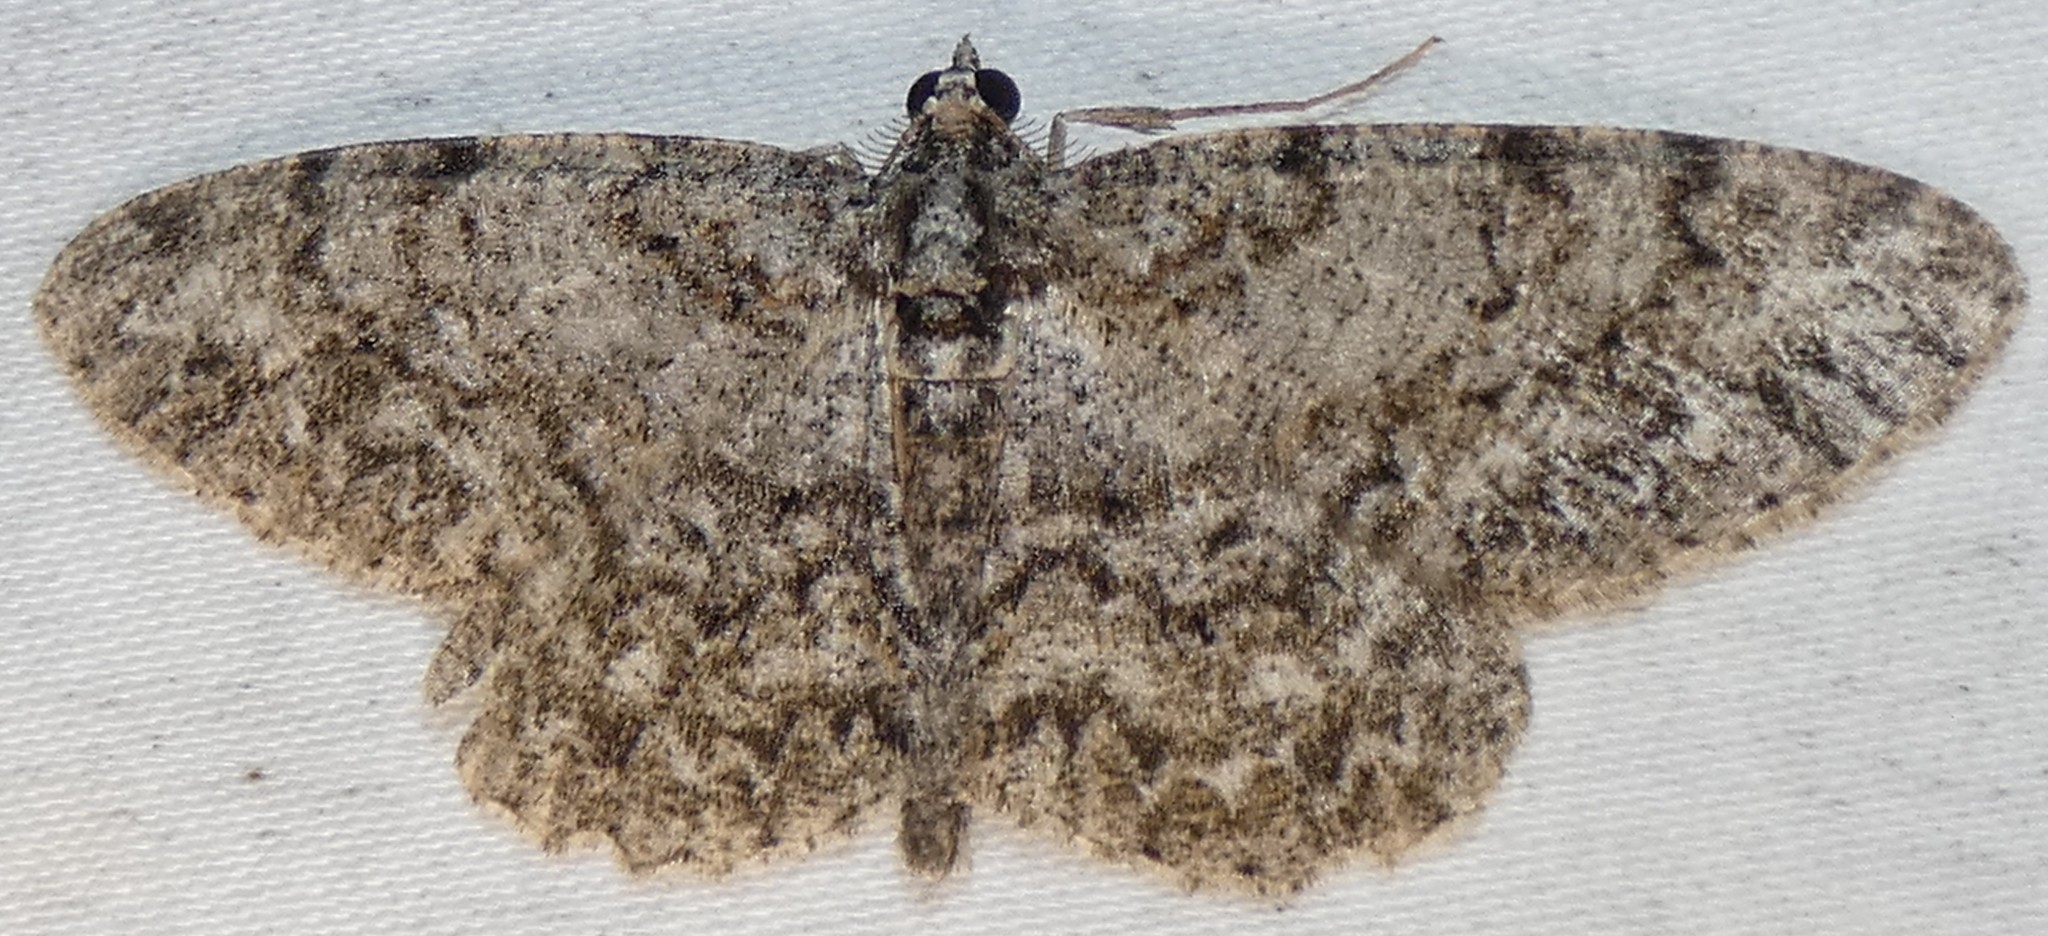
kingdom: Animalia
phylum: Arthropoda
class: Insecta
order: Lepidoptera
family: Geometridae
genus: Protoboarmia
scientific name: Protoboarmia porcelaria
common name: Porcelain gray
